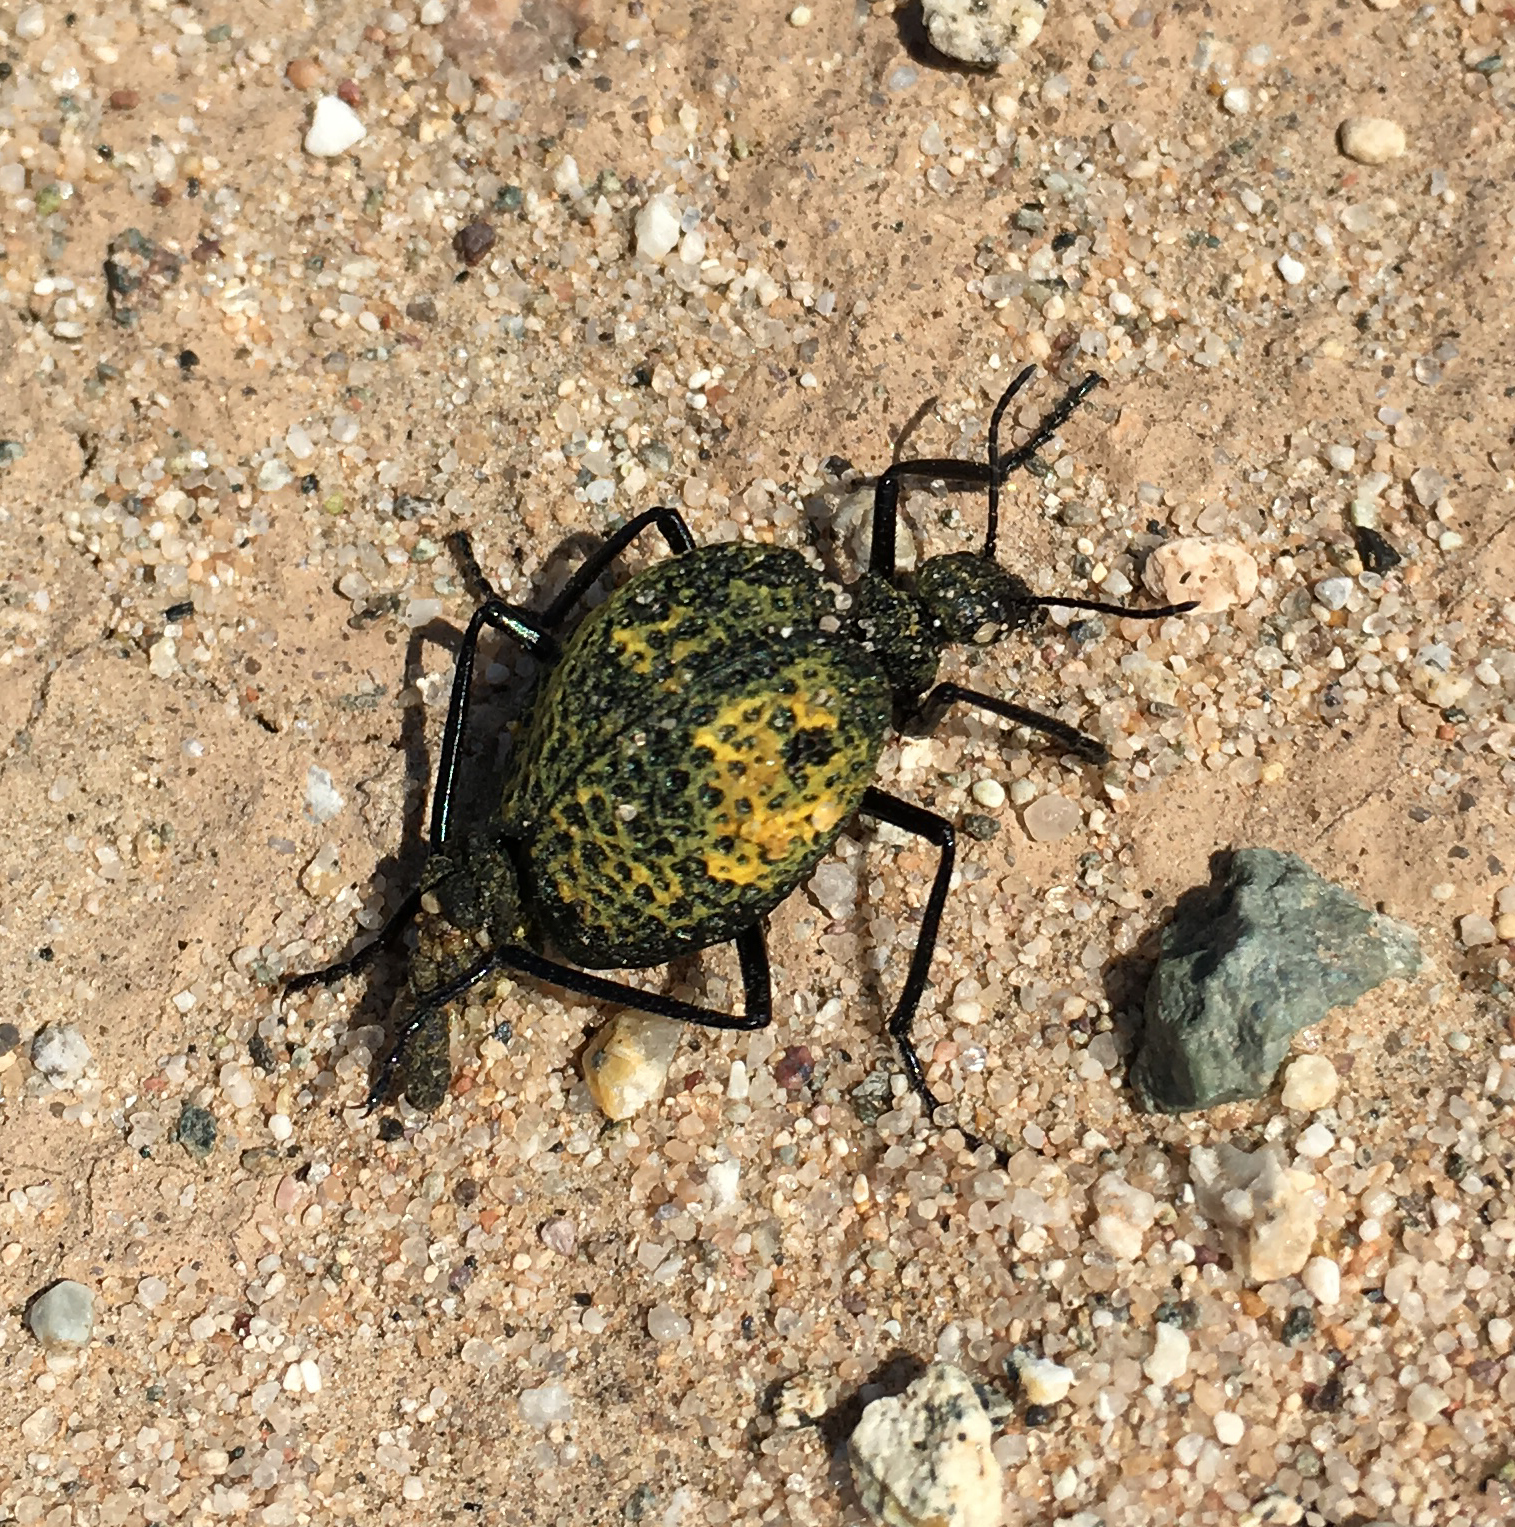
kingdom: Animalia
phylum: Arthropoda
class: Insecta
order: Coleoptera
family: Meloidae
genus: Cysteodemus
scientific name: Cysteodemus armatus
